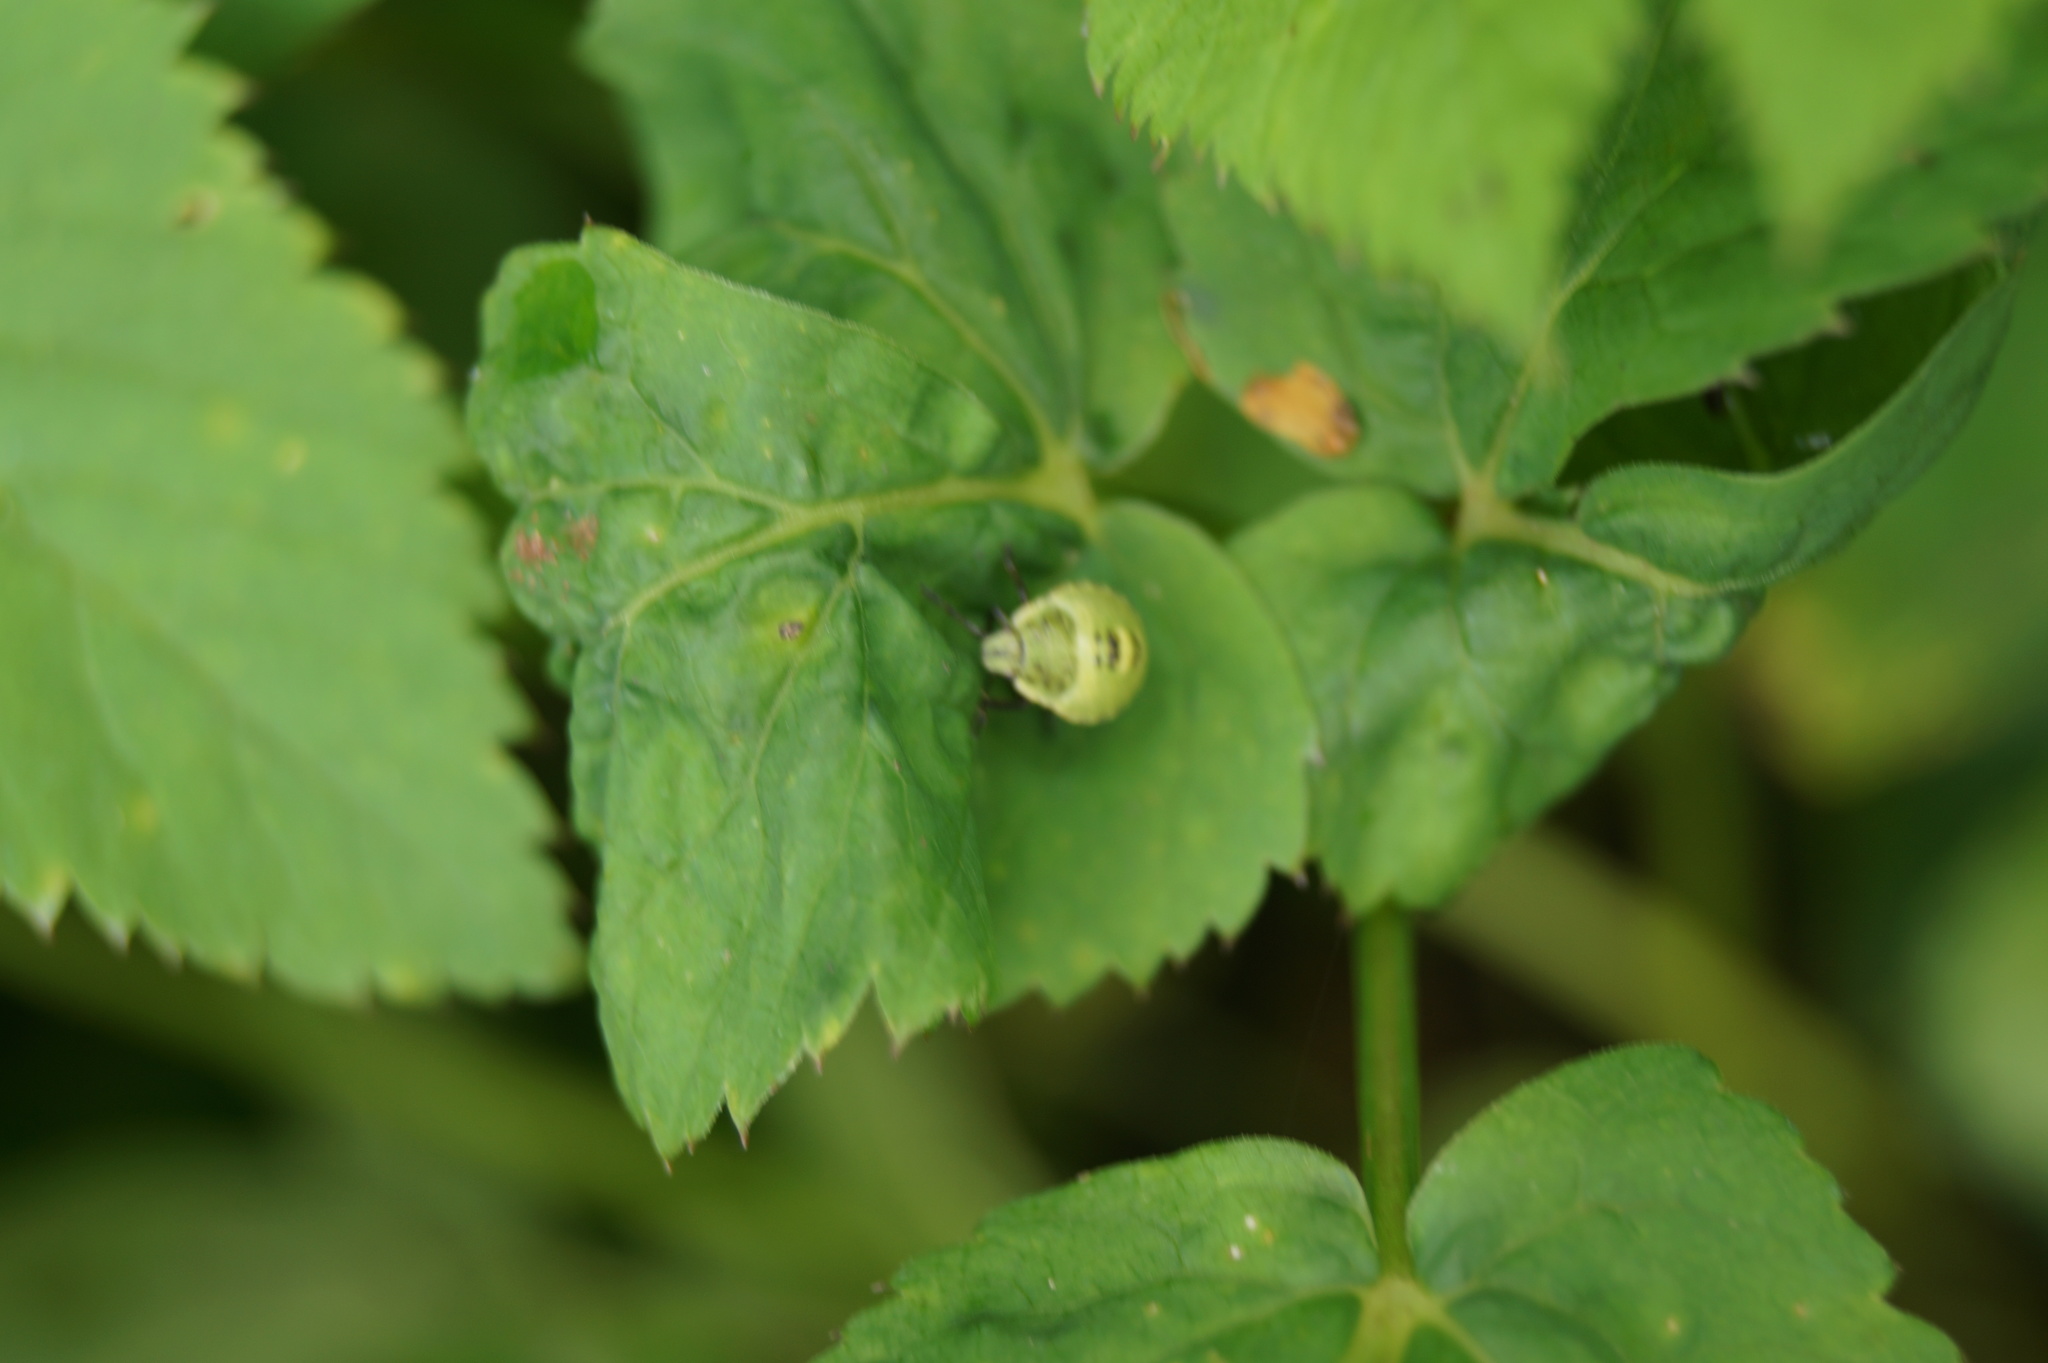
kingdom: Animalia
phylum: Arthropoda
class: Insecta
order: Hemiptera
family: Pentatomidae
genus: Palomena
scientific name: Palomena prasina
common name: Green shieldbug
